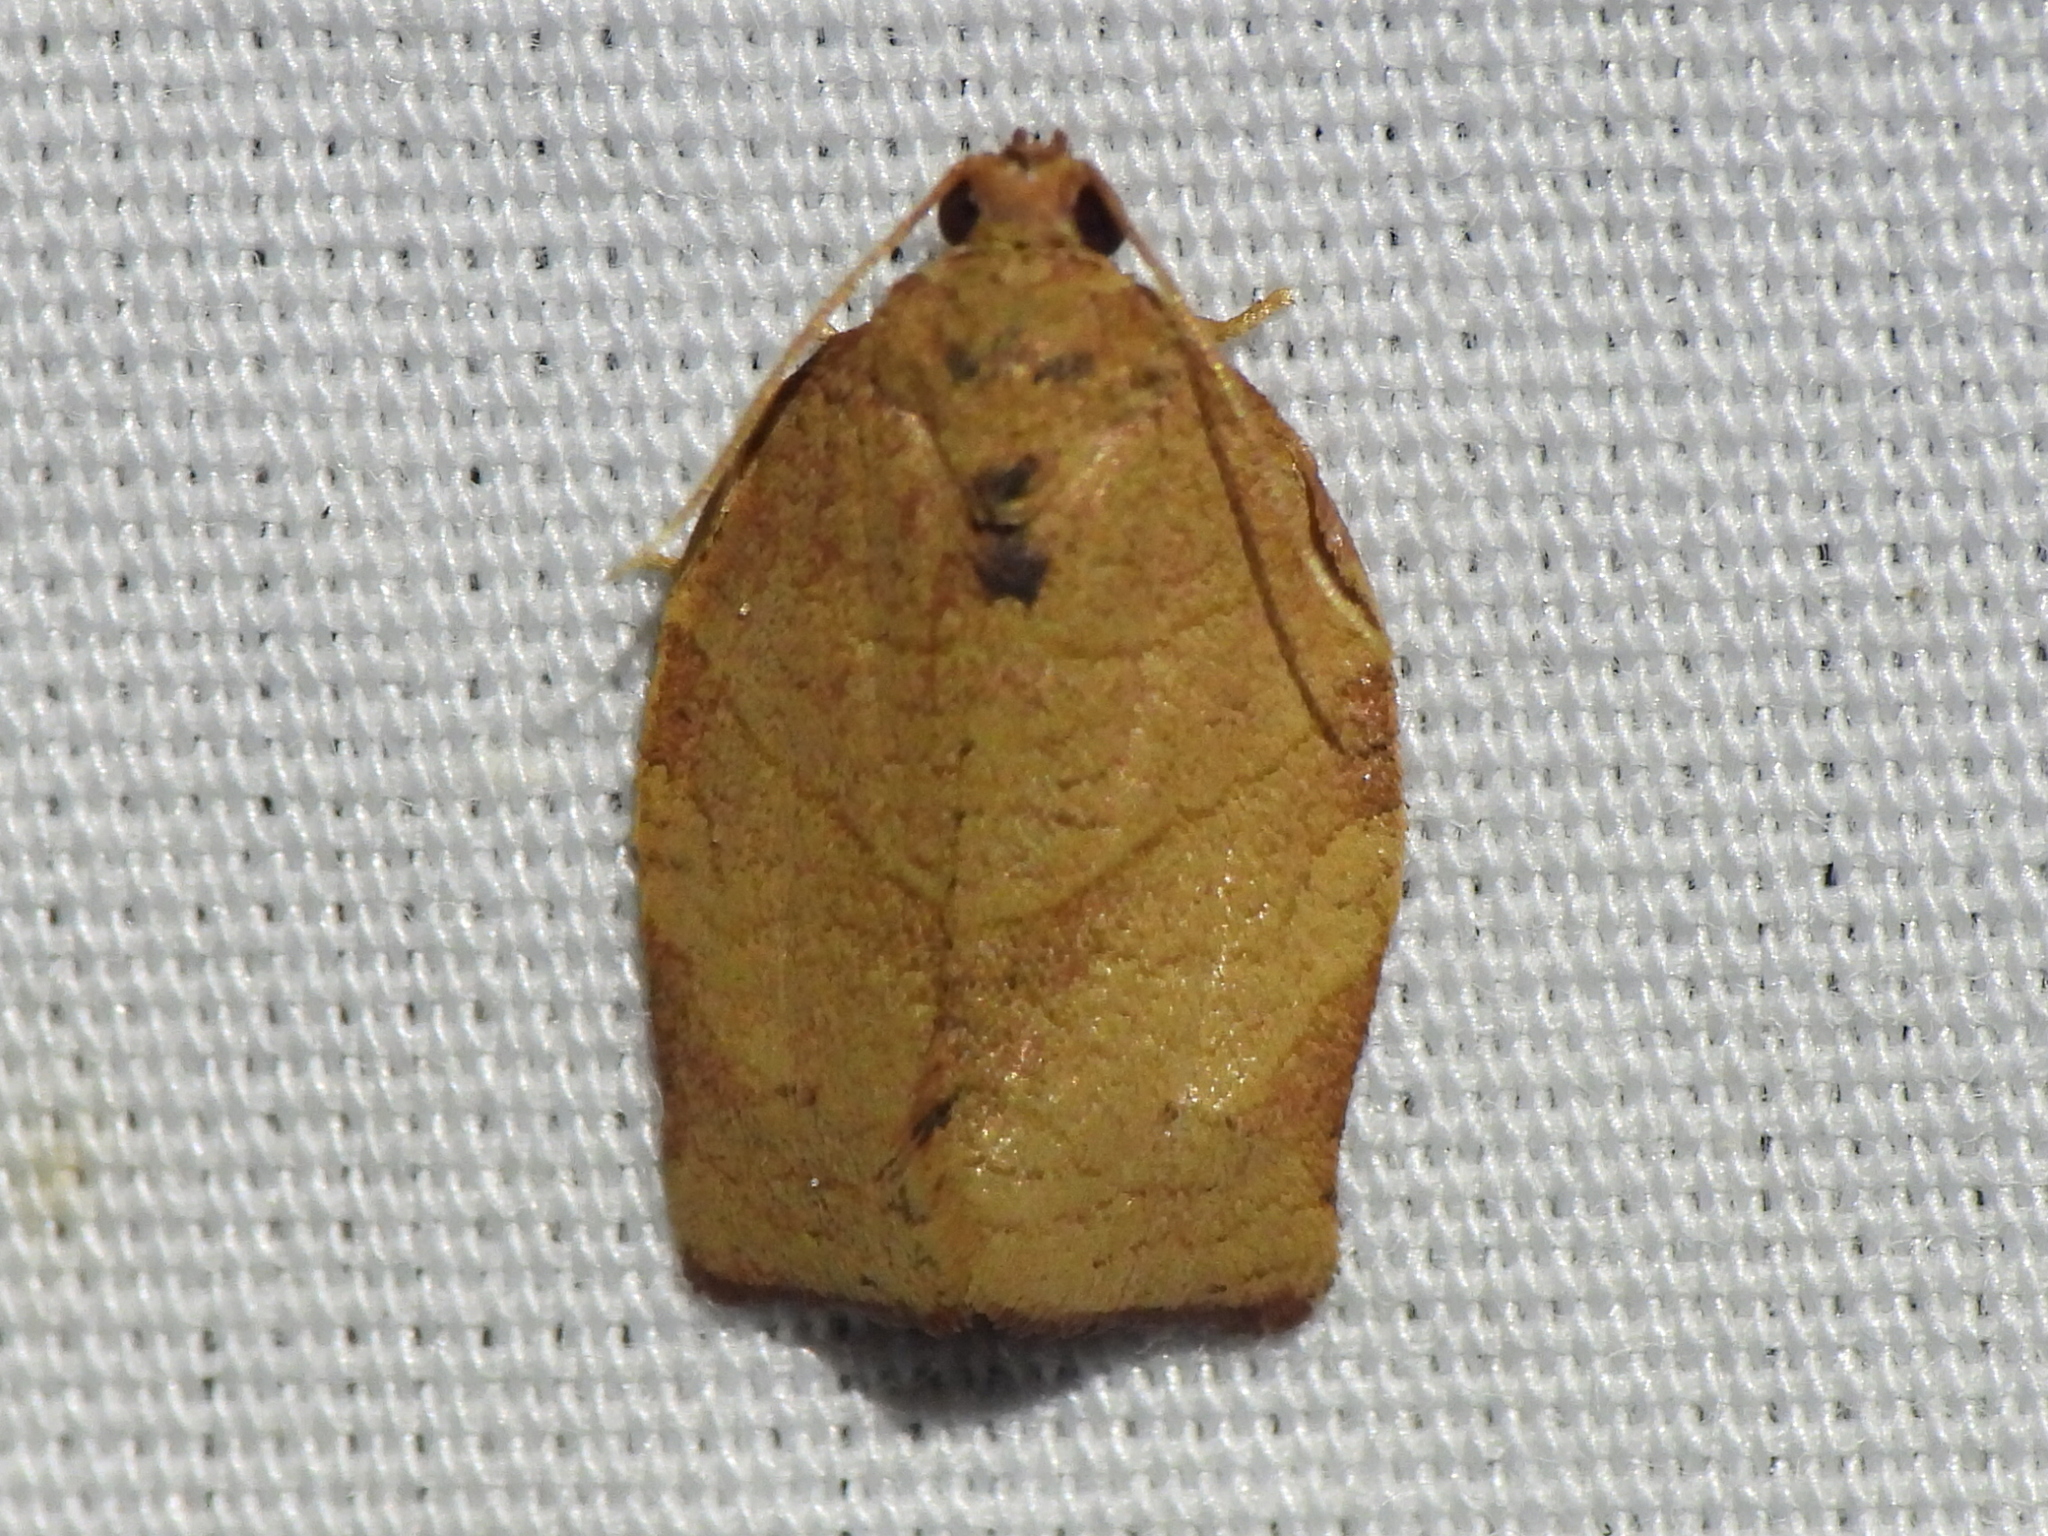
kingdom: Animalia
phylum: Arthropoda
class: Insecta
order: Lepidoptera
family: Tortricidae
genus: Choristoneura
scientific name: Choristoneura rosaceana
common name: Oblique-banded leafroller moth
